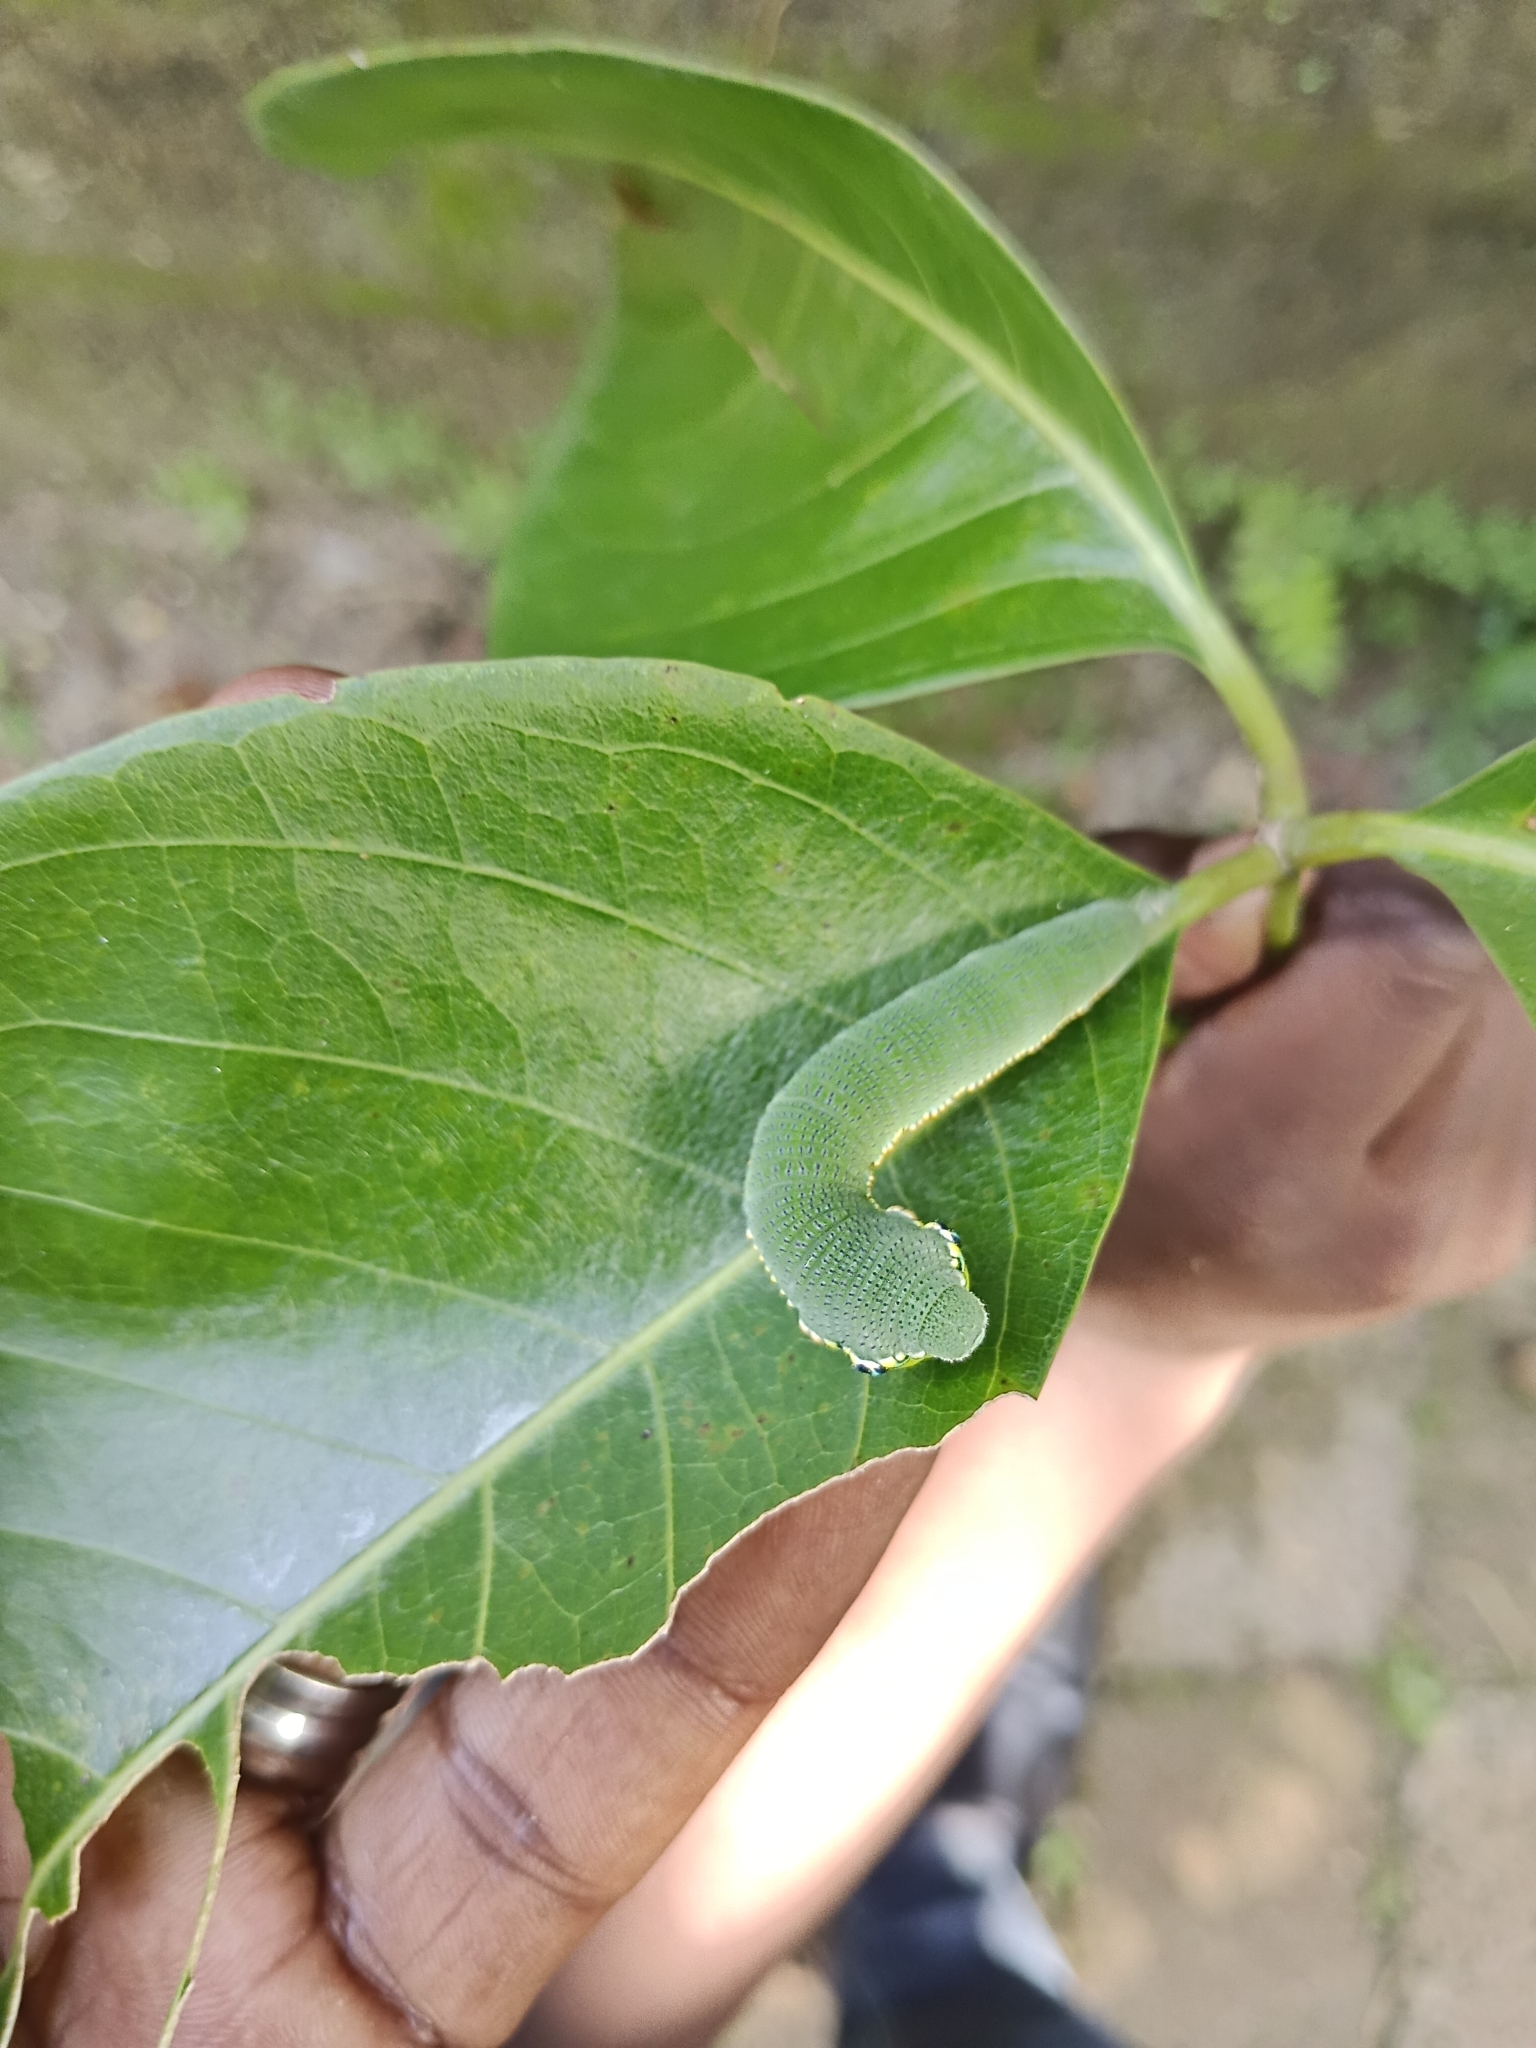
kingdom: Animalia
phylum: Arthropoda
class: Insecta
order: Lepidoptera
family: Pieridae
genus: Hebomoia
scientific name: Hebomoia glaucippe
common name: Great orange tip
